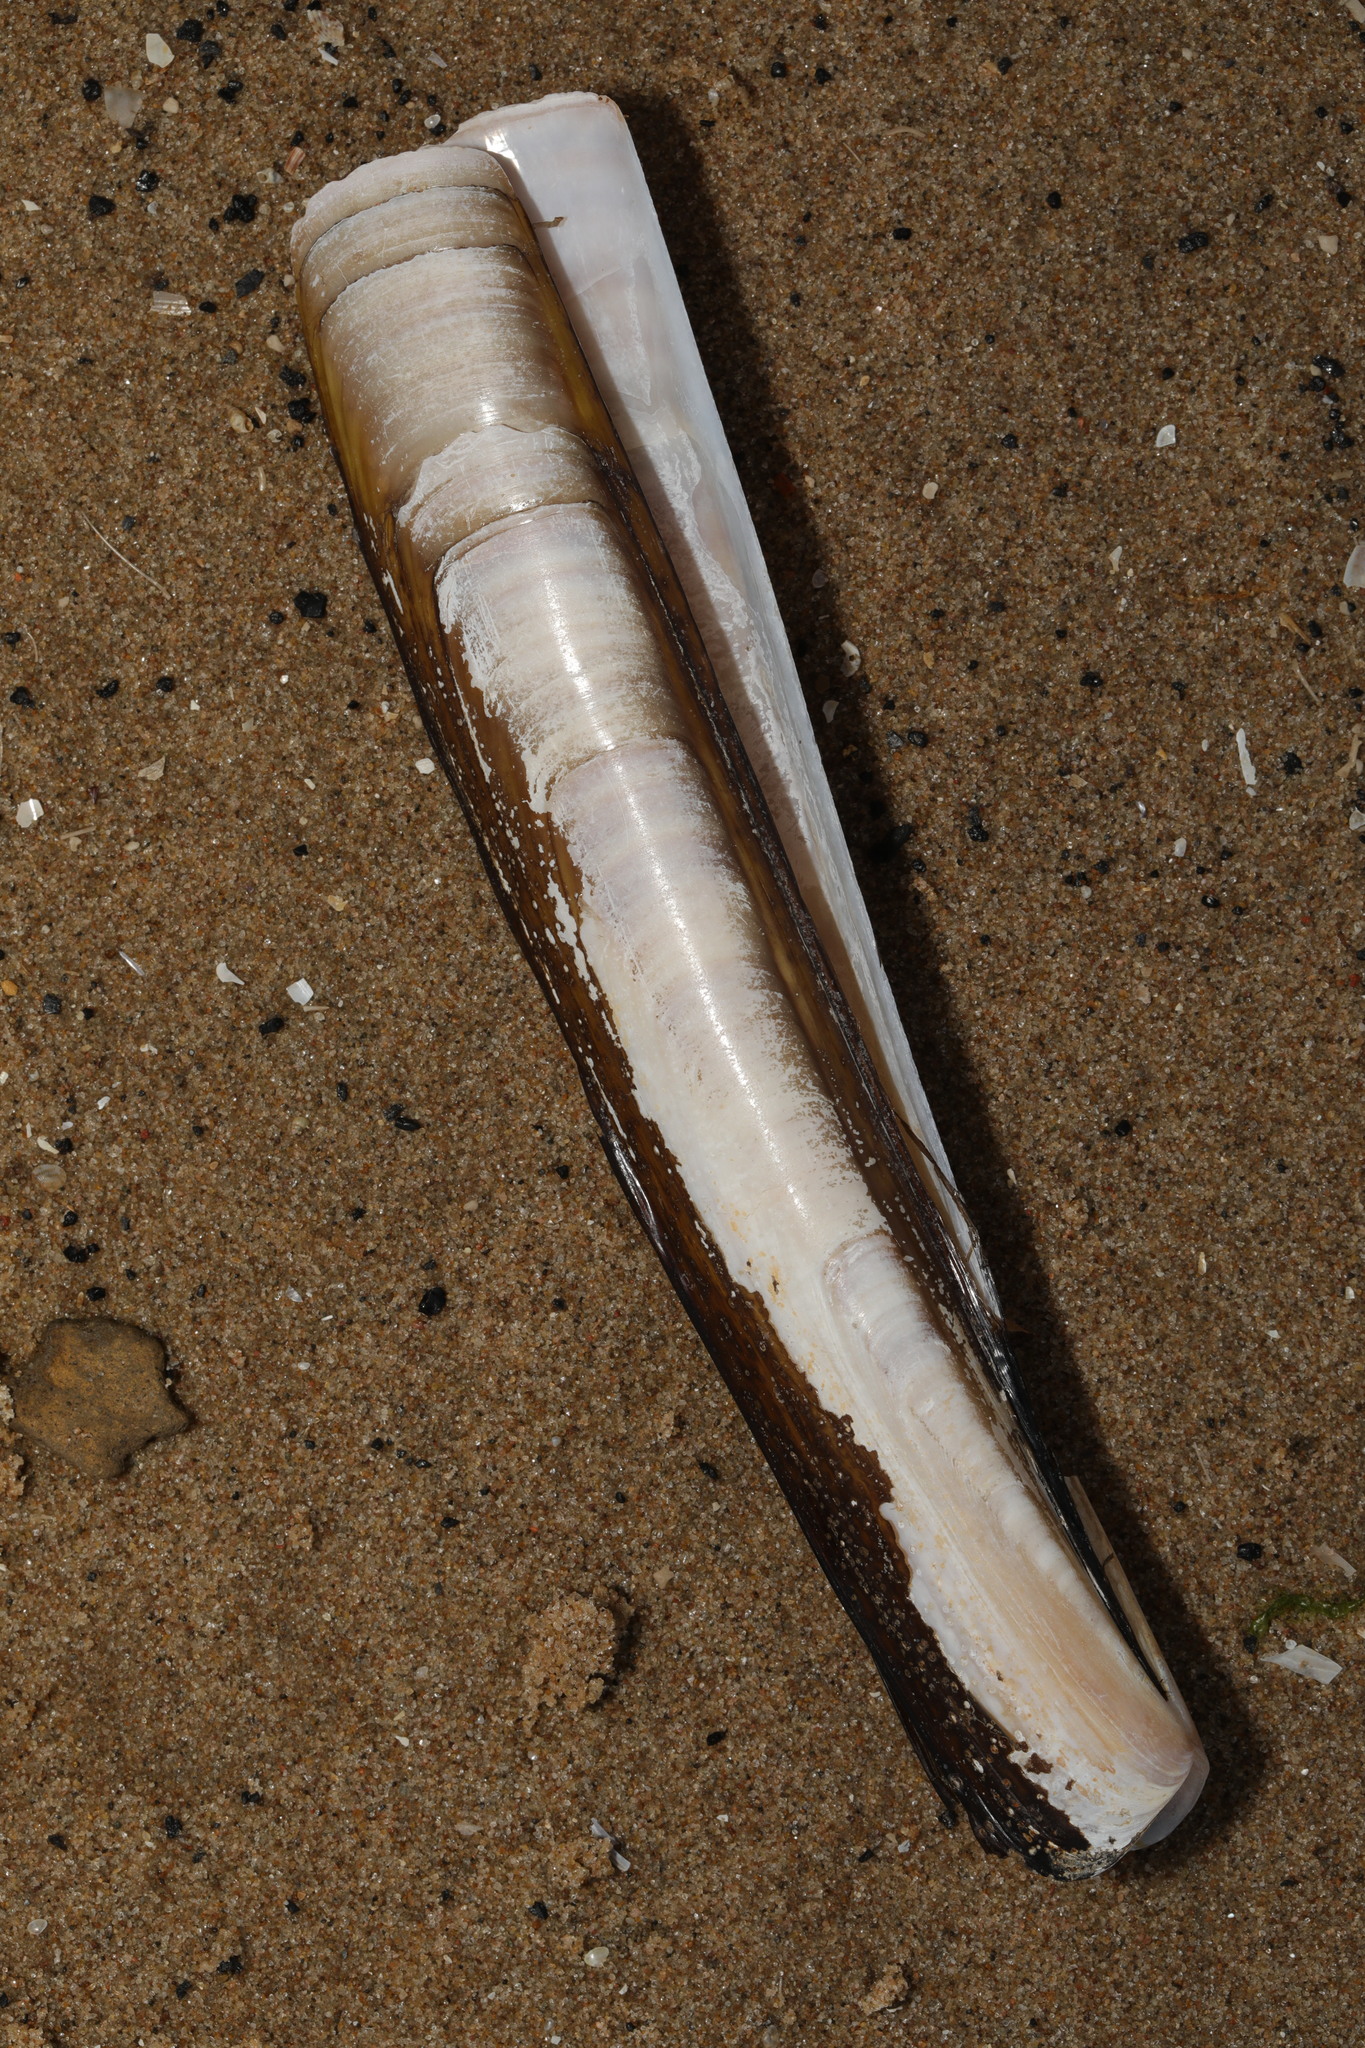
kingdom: Animalia
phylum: Mollusca
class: Bivalvia
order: Adapedonta
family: Pharidae
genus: Ensis
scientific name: Ensis leei
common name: American jack knife clam
